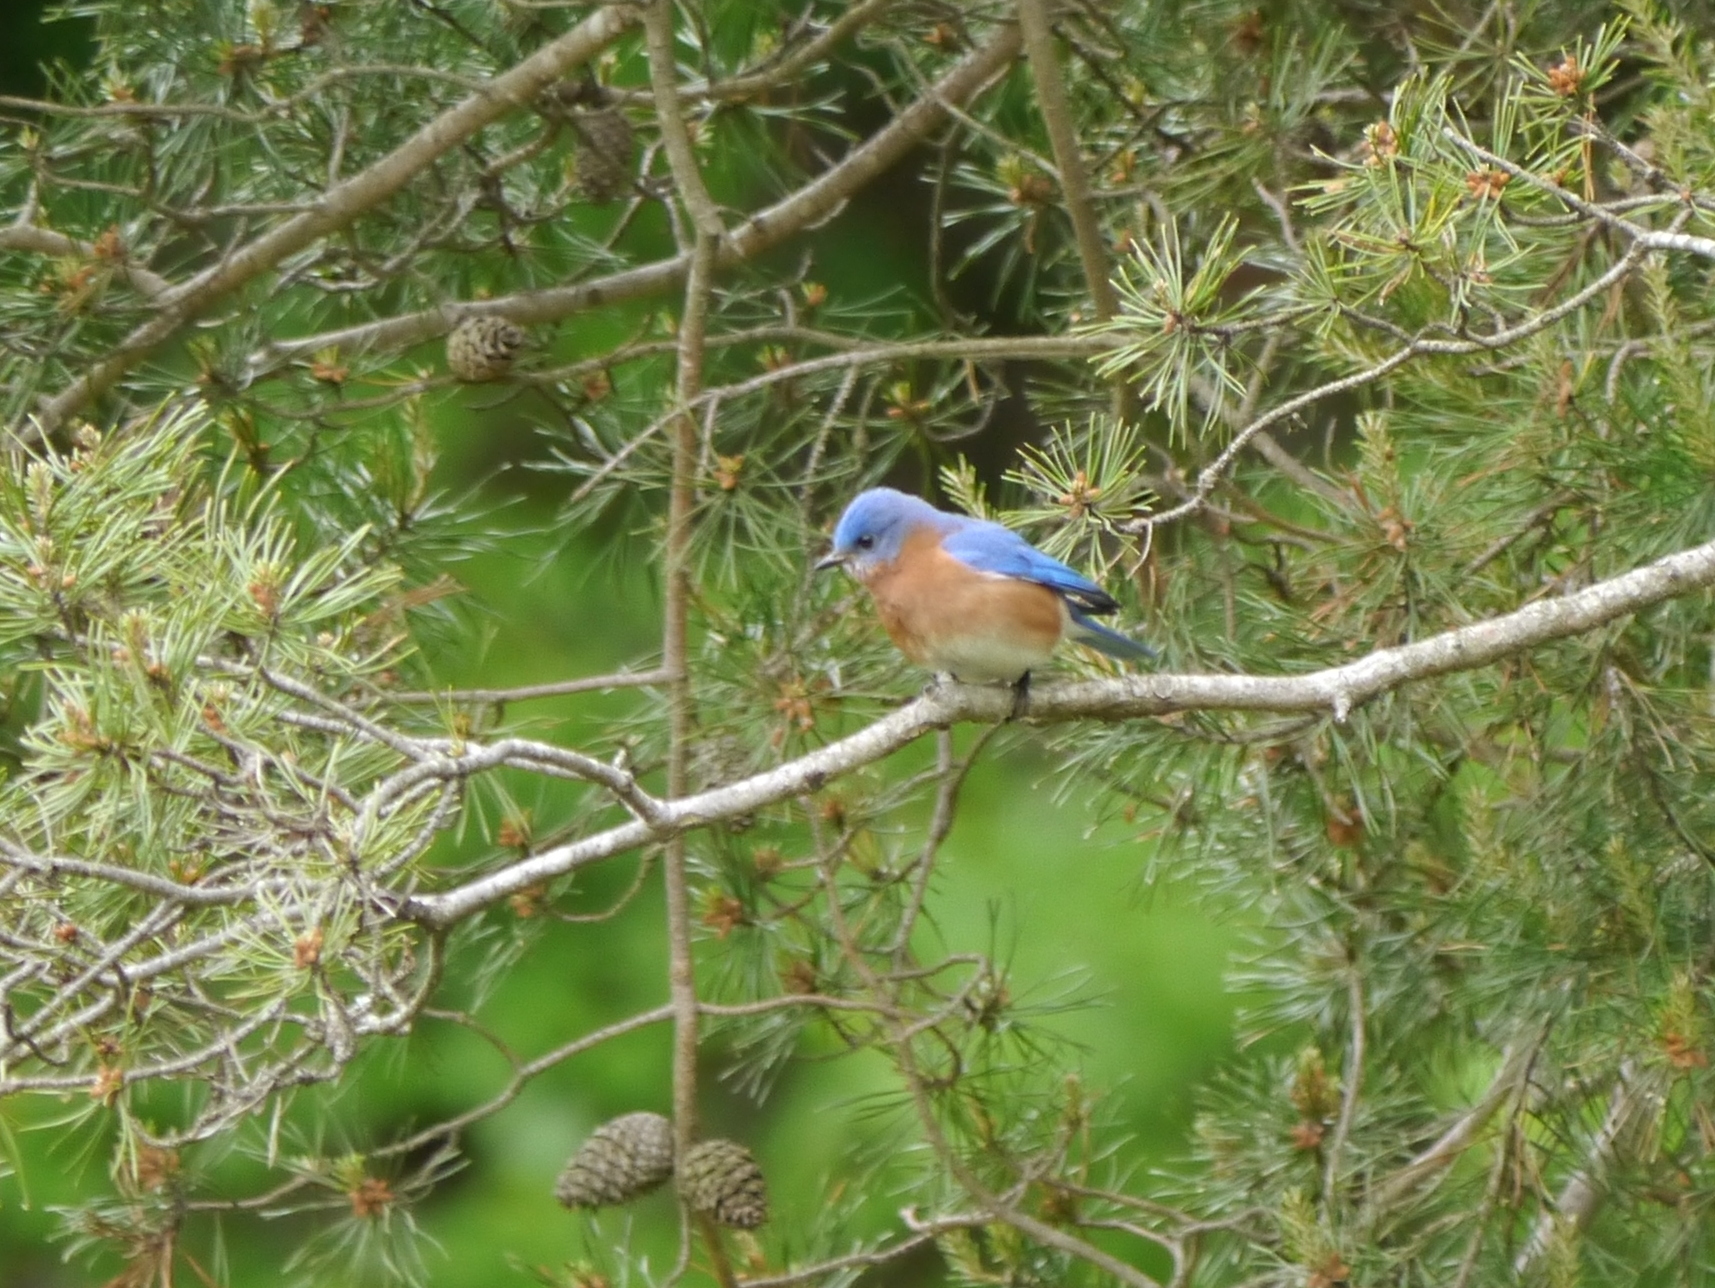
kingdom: Animalia
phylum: Chordata
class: Aves
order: Passeriformes
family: Turdidae
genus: Sialia
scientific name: Sialia sialis
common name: Eastern bluebird
